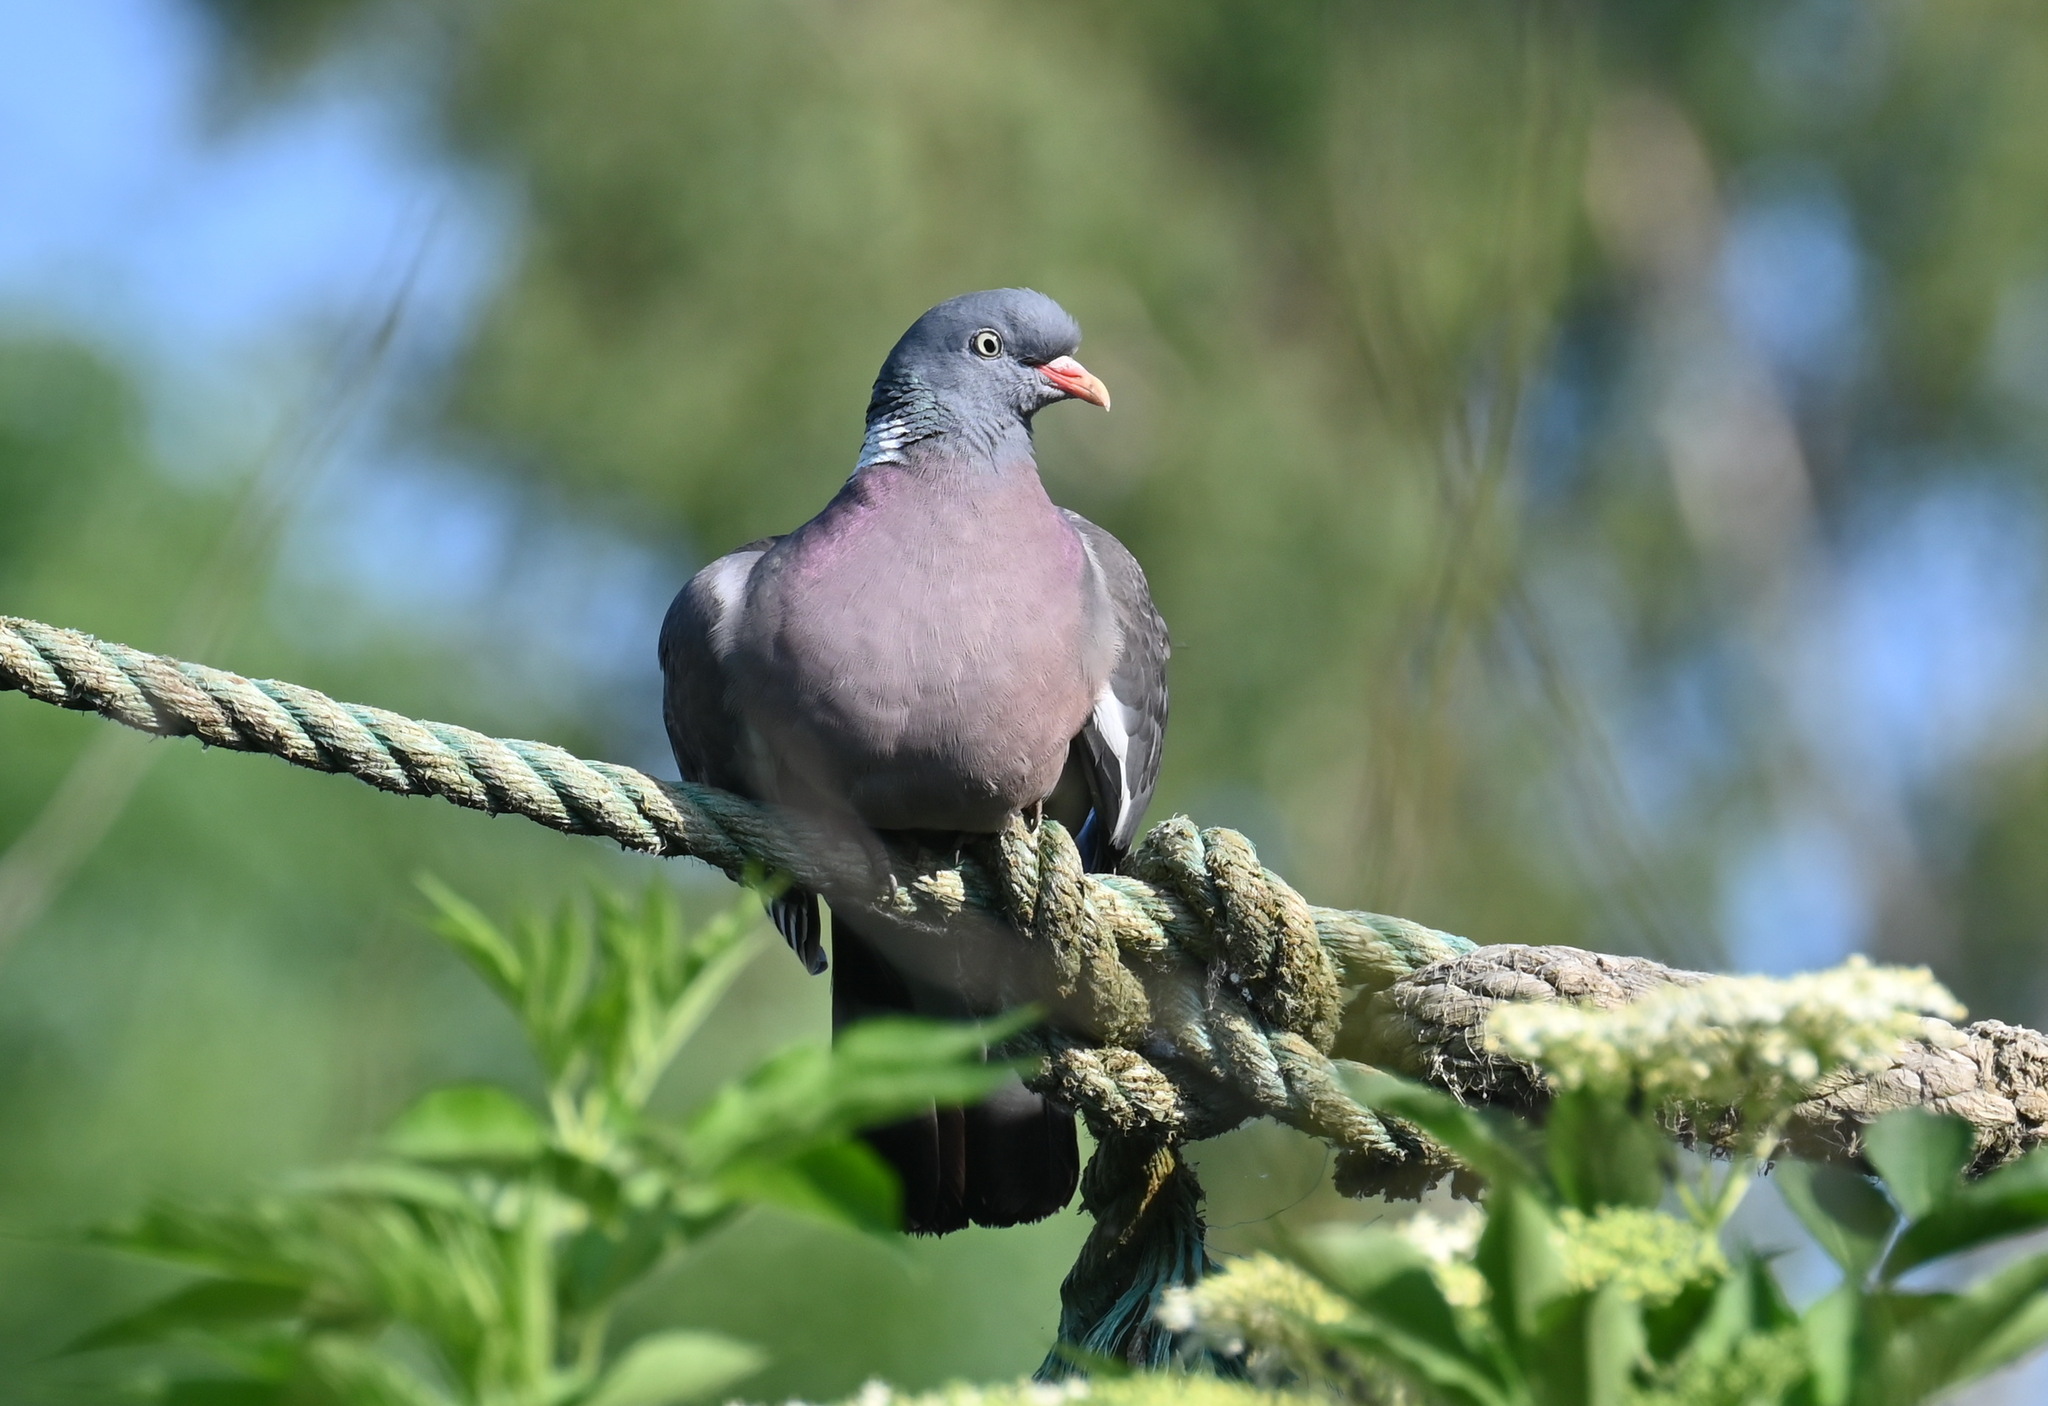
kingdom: Animalia
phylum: Chordata
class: Aves
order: Columbiformes
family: Columbidae
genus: Columba
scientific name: Columba palumbus
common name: Common wood pigeon
